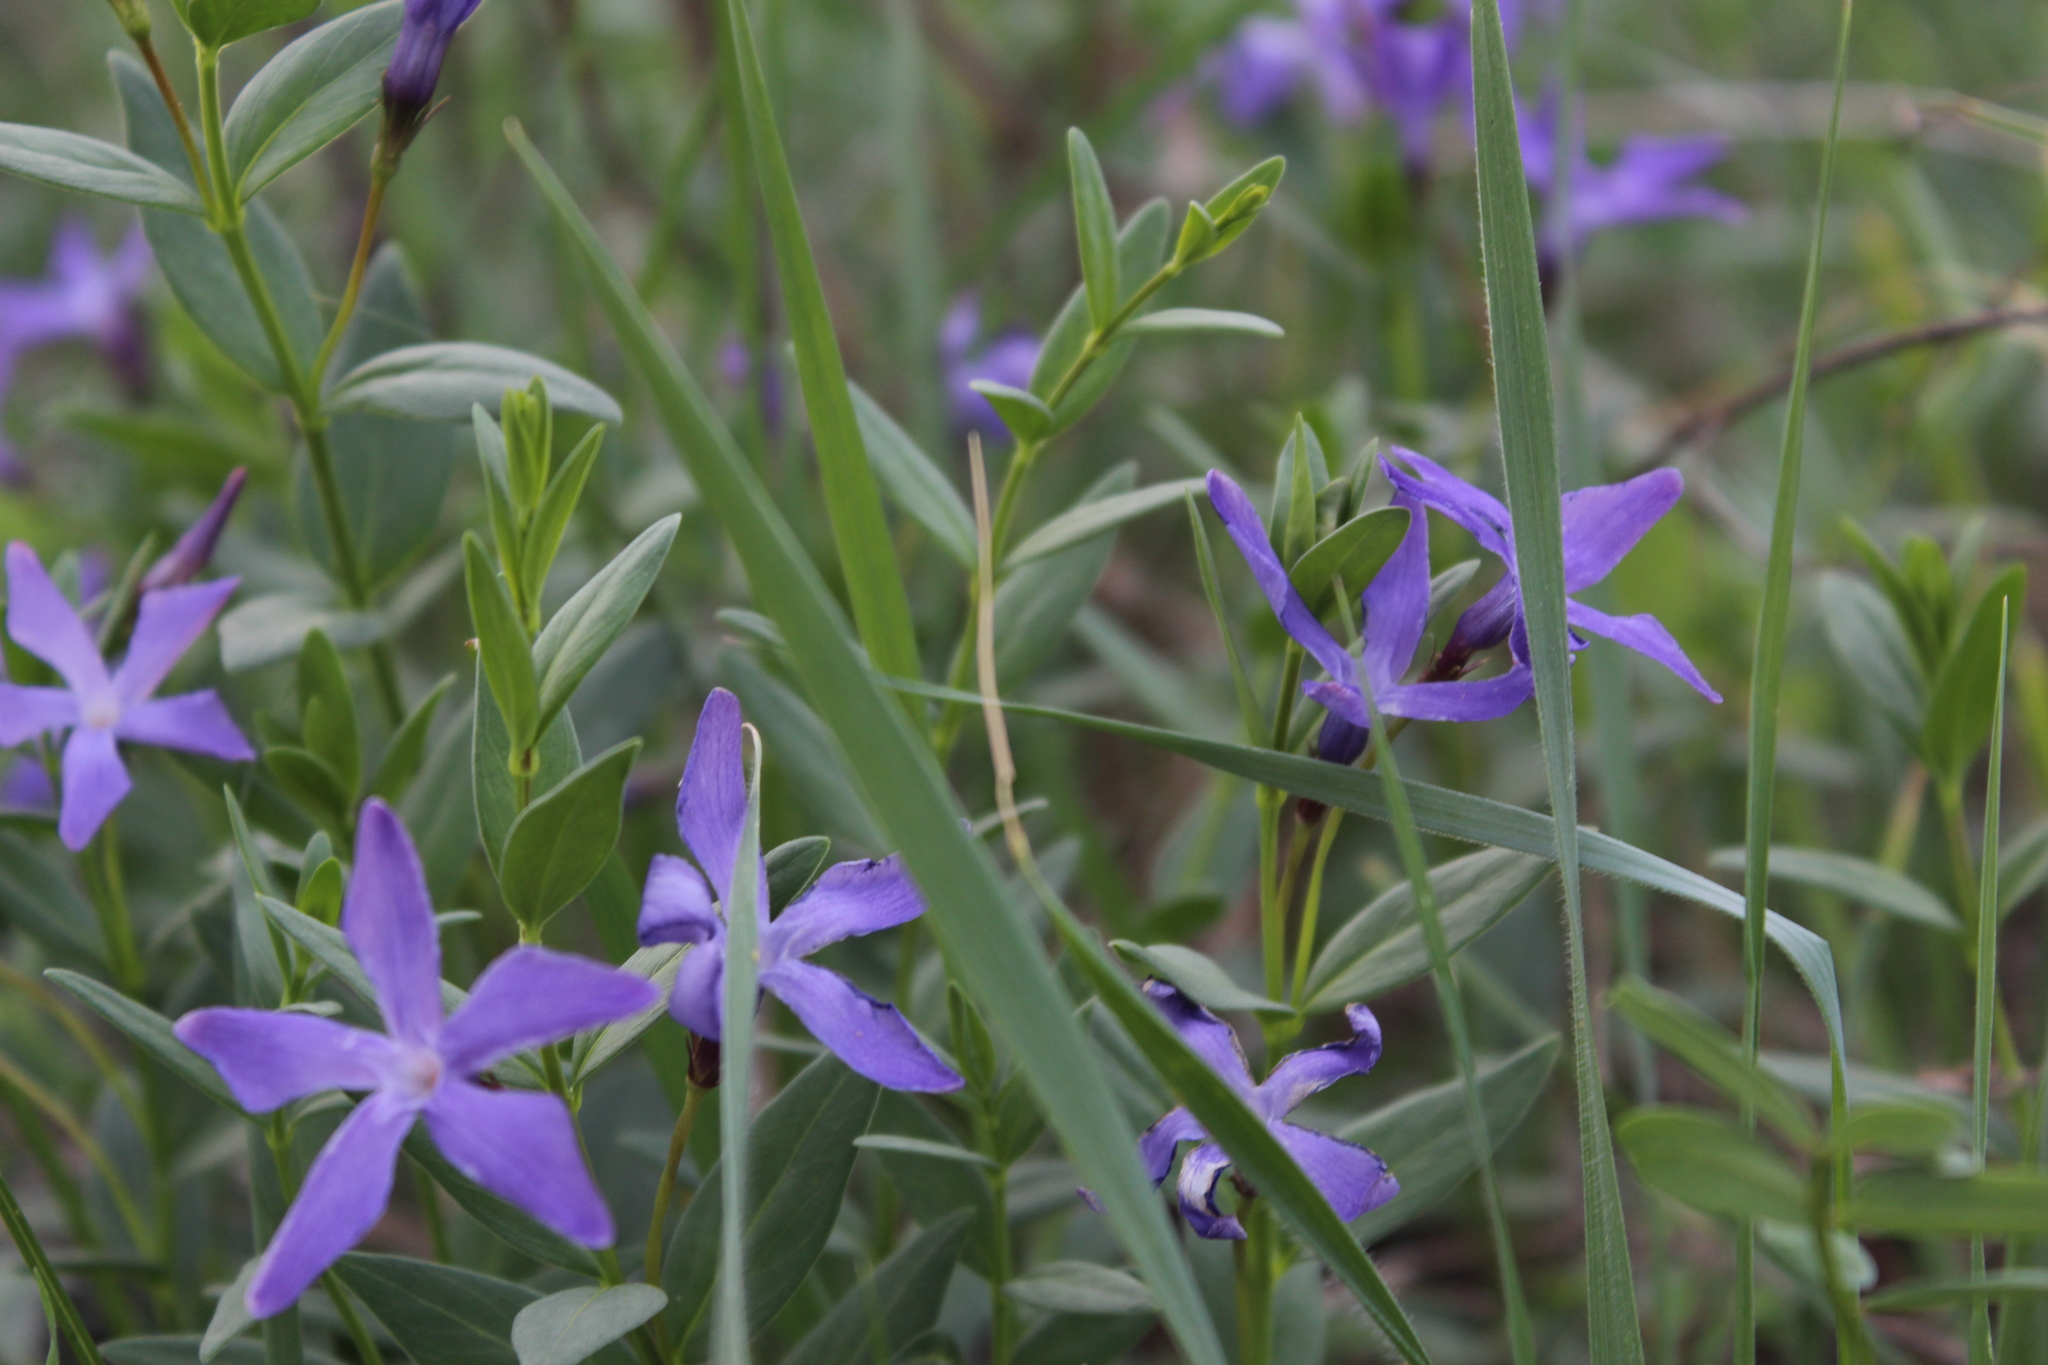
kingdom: Plantae
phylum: Tracheophyta
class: Magnoliopsida
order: Gentianales
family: Apocynaceae
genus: Vinca
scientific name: Vinca herbacea
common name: Herbaceous periwinkle
